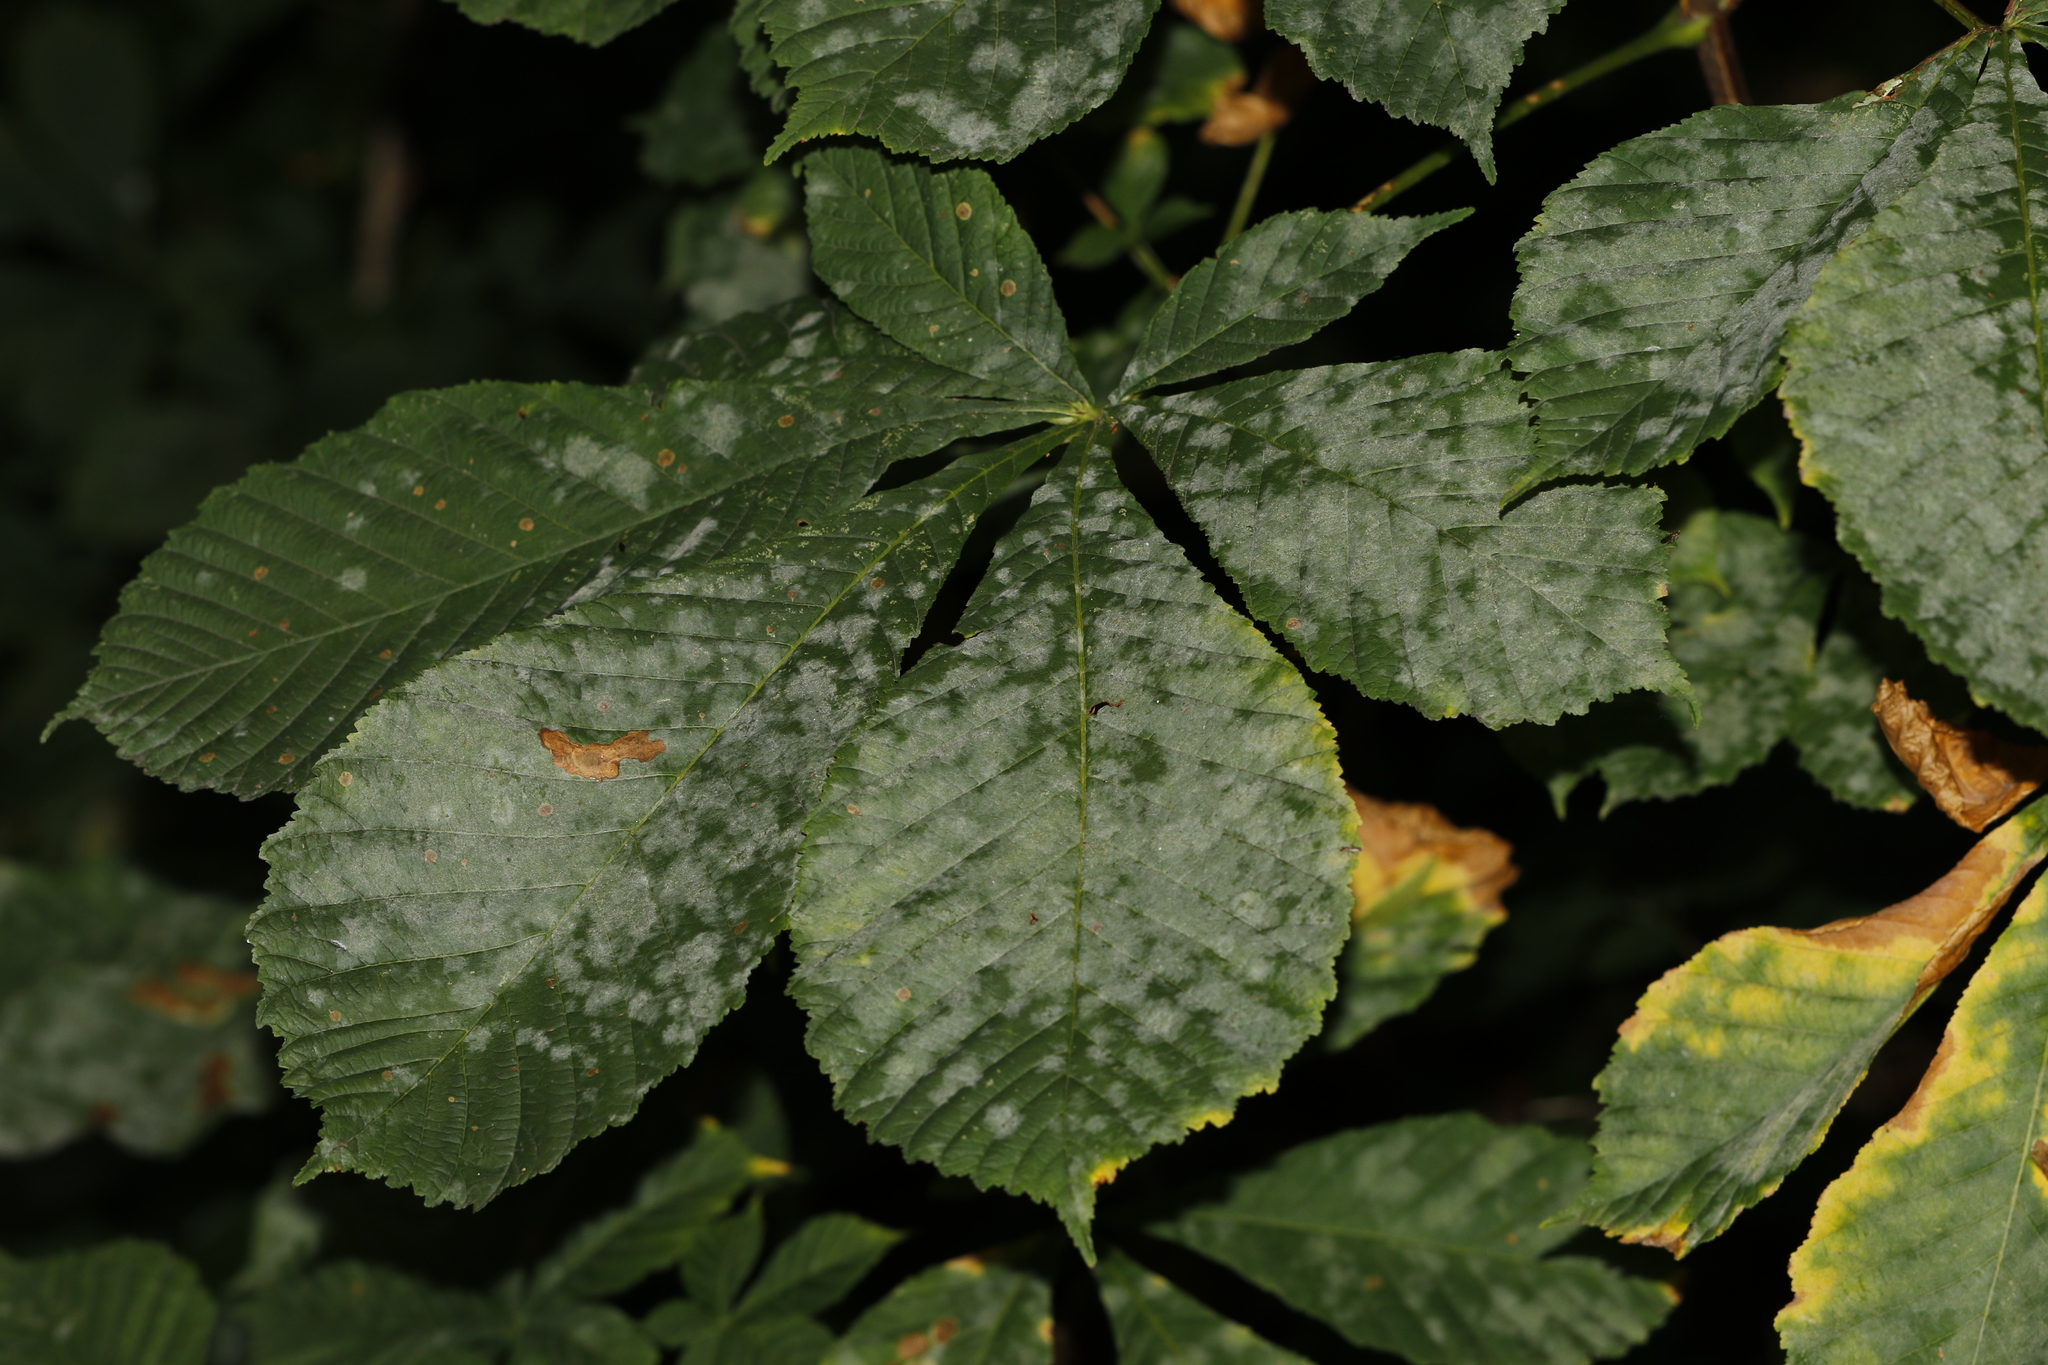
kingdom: Fungi
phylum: Ascomycota
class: Leotiomycetes
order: Helotiales
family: Erysiphaceae
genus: Erysiphe
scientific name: Erysiphe flexuosa
